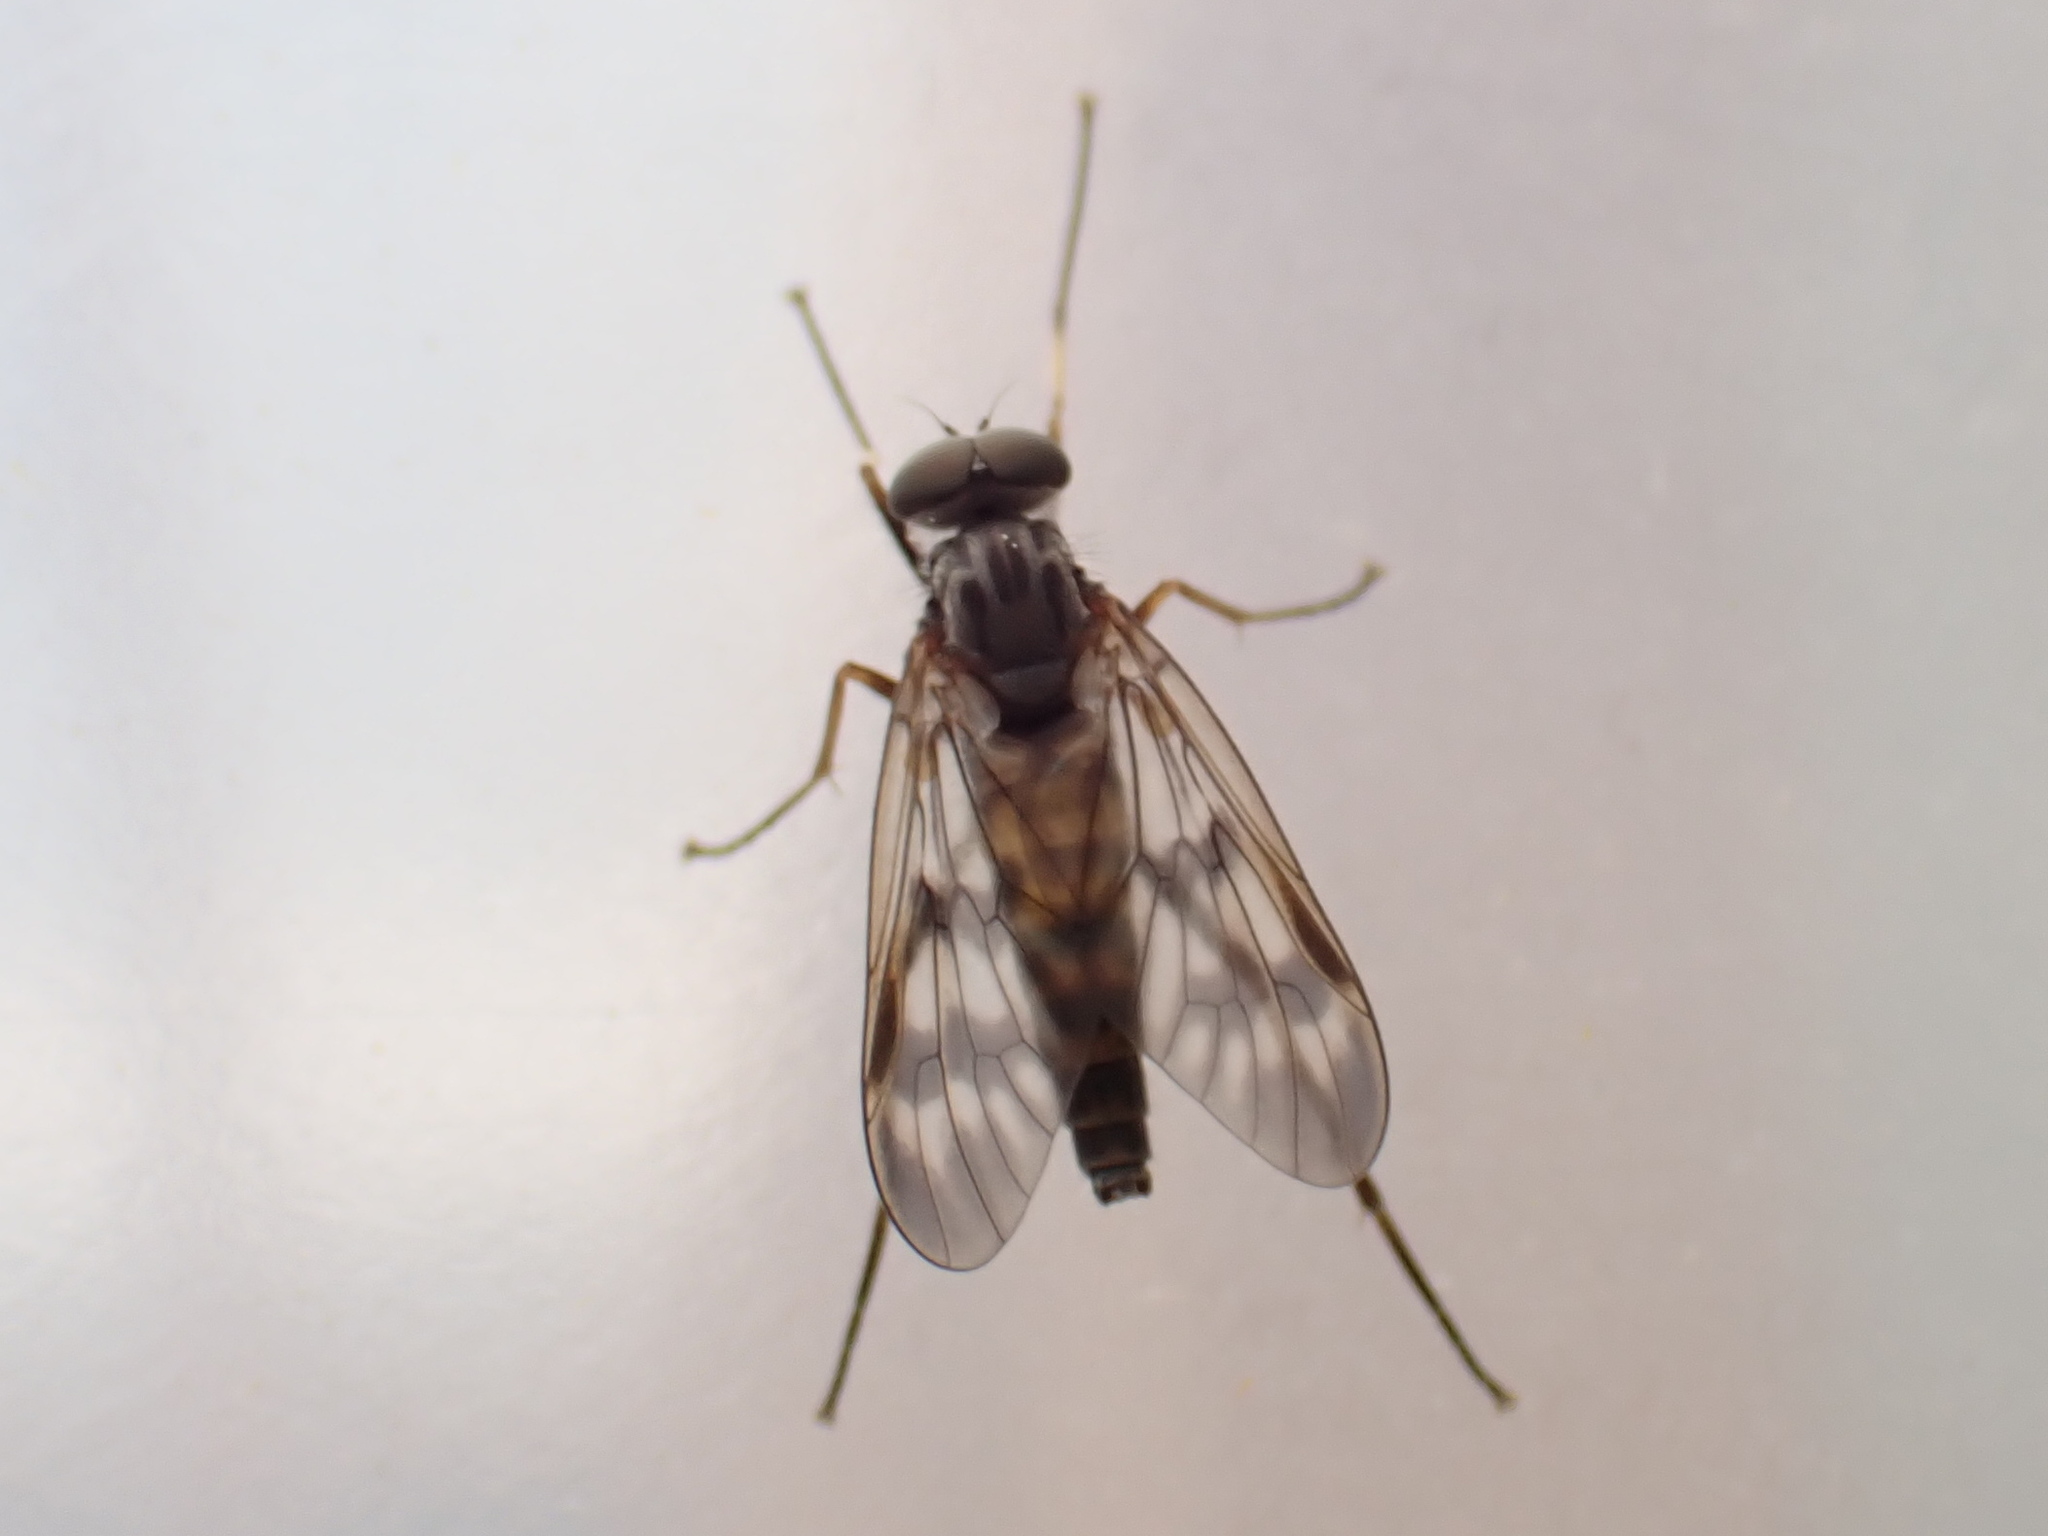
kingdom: Animalia
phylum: Arthropoda
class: Insecta
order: Diptera
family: Rhagionidae
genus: Rhagio
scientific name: Rhagio mystaceus
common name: Common snipe fly
